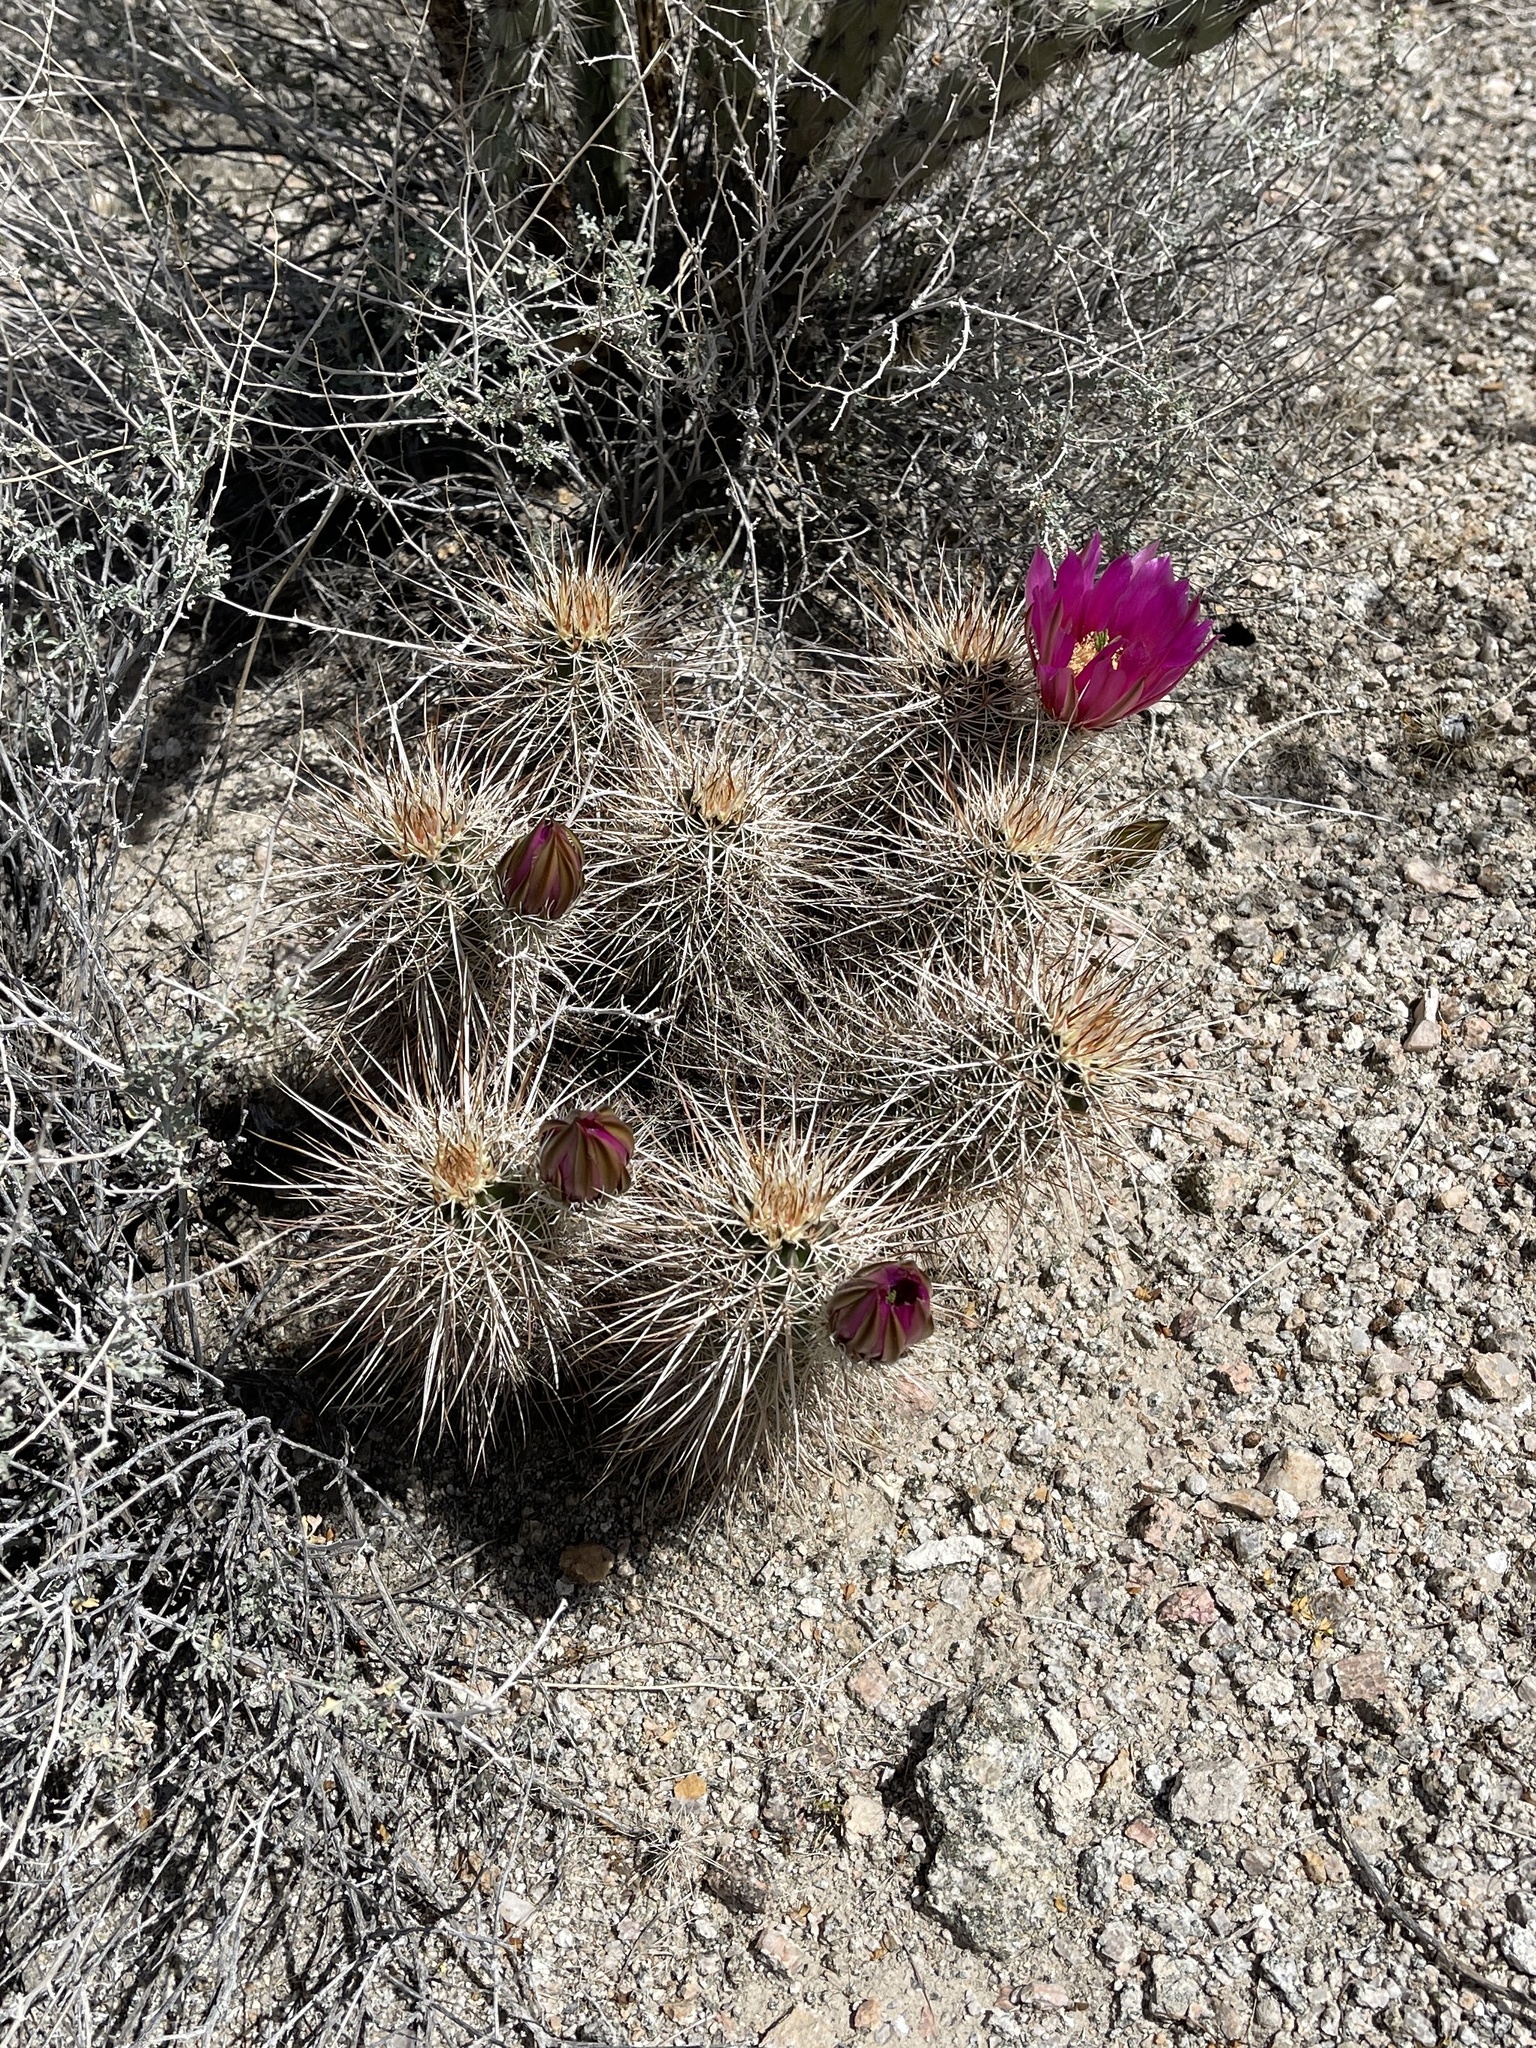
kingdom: Plantae
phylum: Tracheophyta
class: Magnoliopsida
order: Caryophyllales
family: Cactaceae
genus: Echinocereus
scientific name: Echinocereus engelmannii
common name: Engelmann's hedgehog cactus
